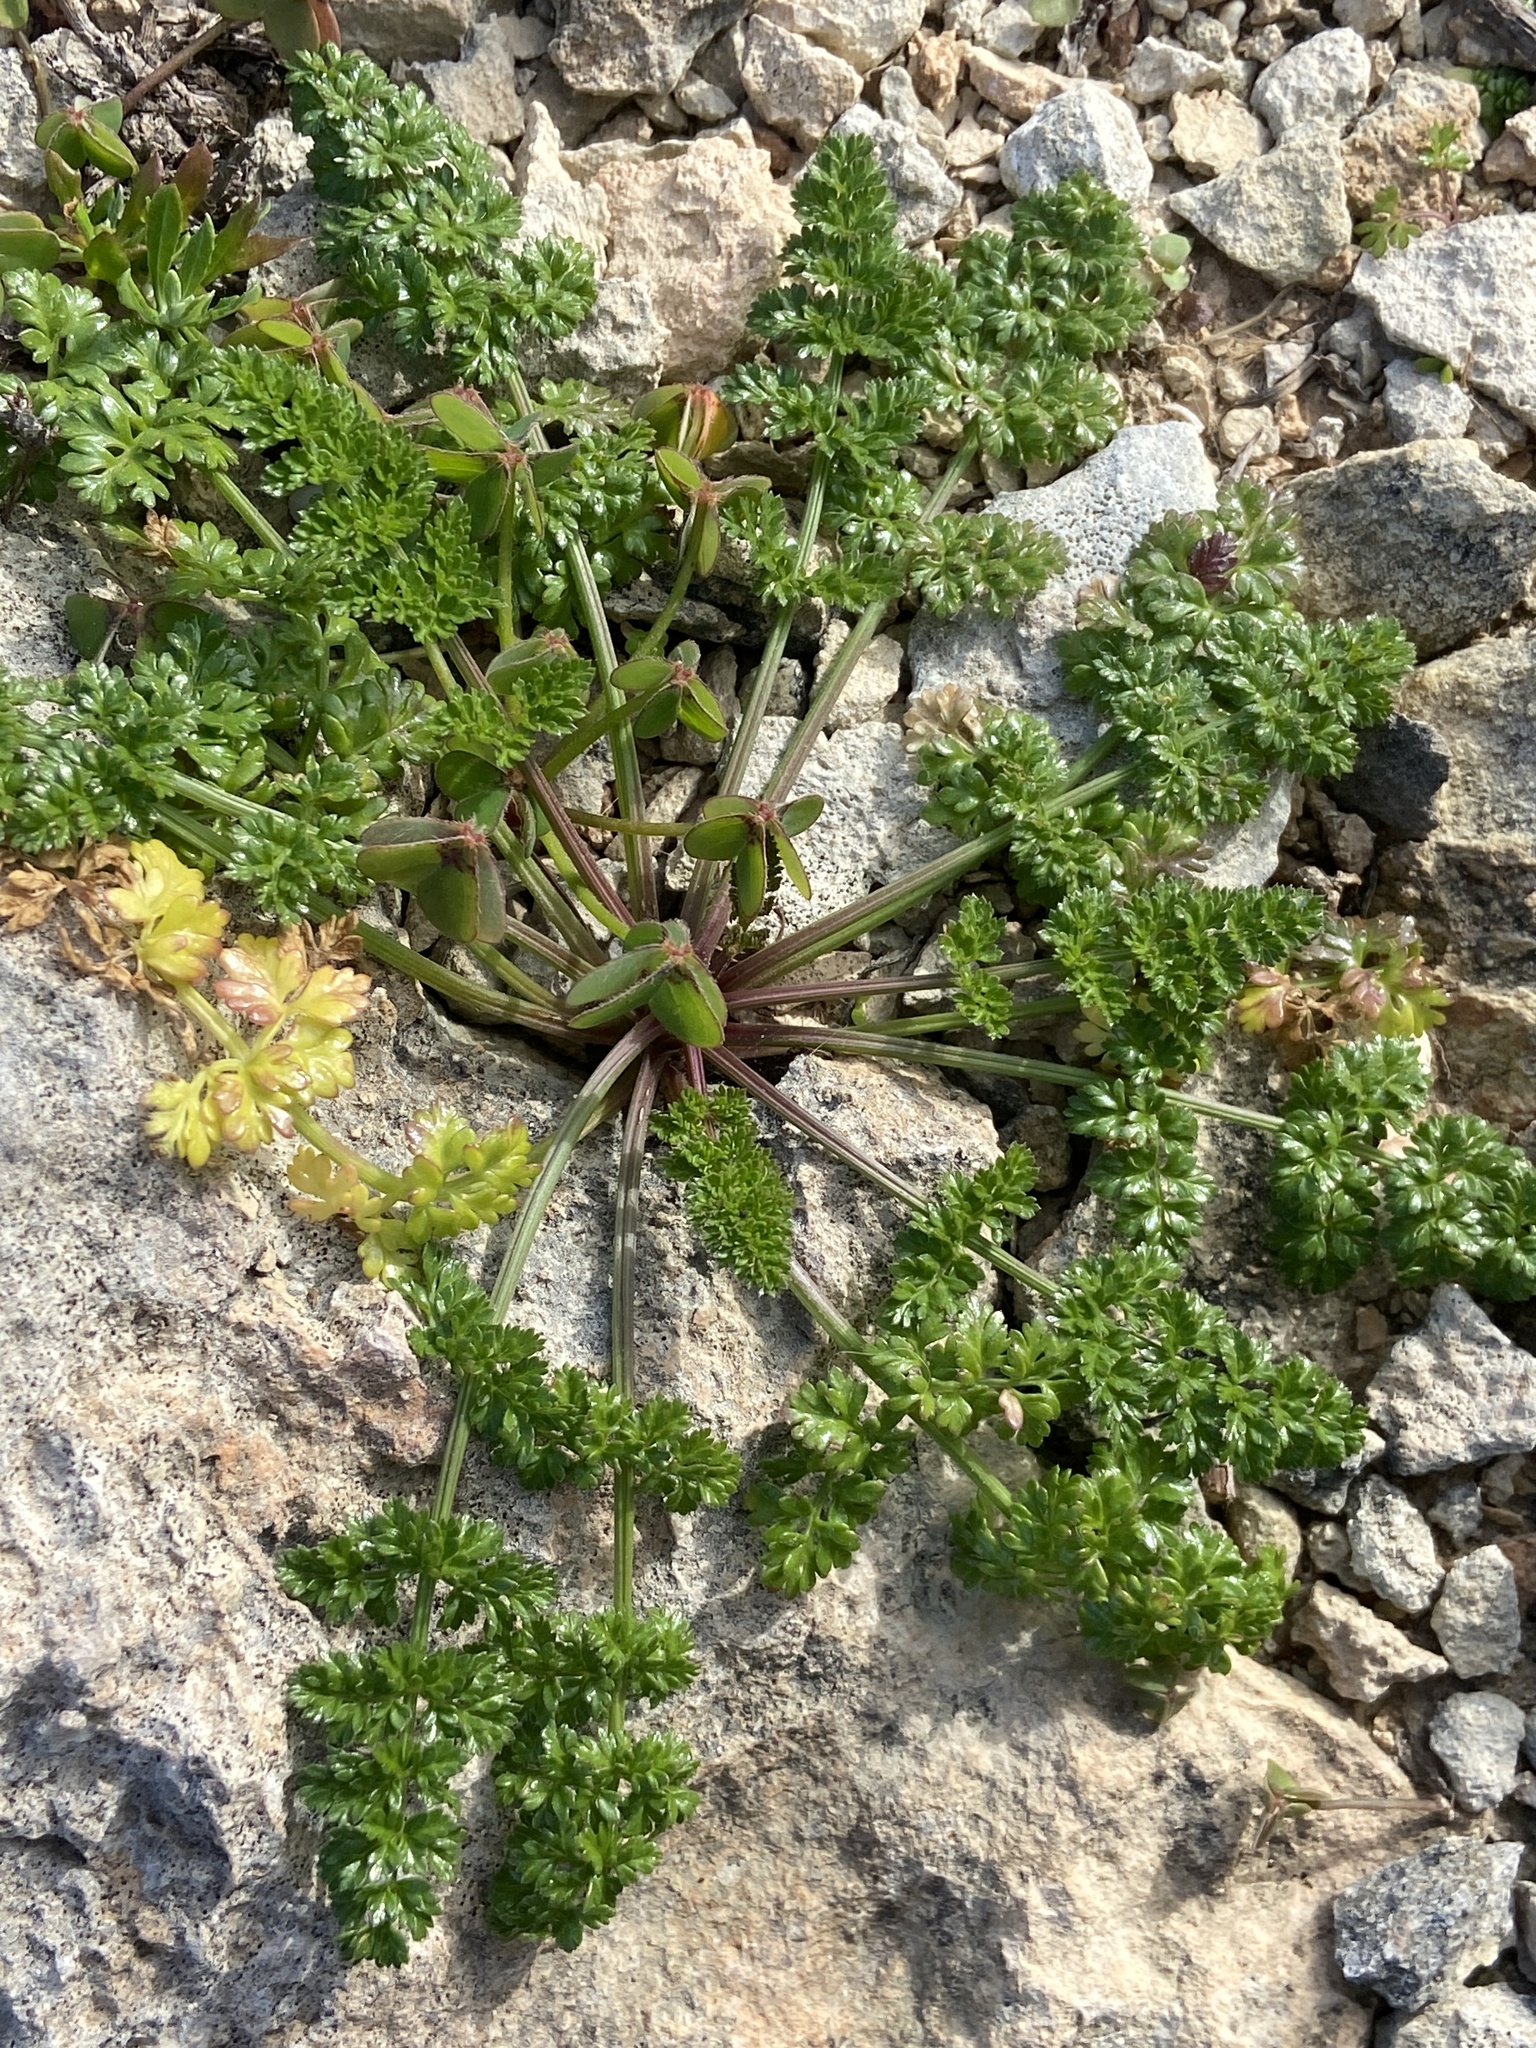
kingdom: Plantae
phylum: Tracheophyta
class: Magnoliopsida
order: Apiales
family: Apiaceae
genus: Daucus
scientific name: Daucus carota
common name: Wild carrot
